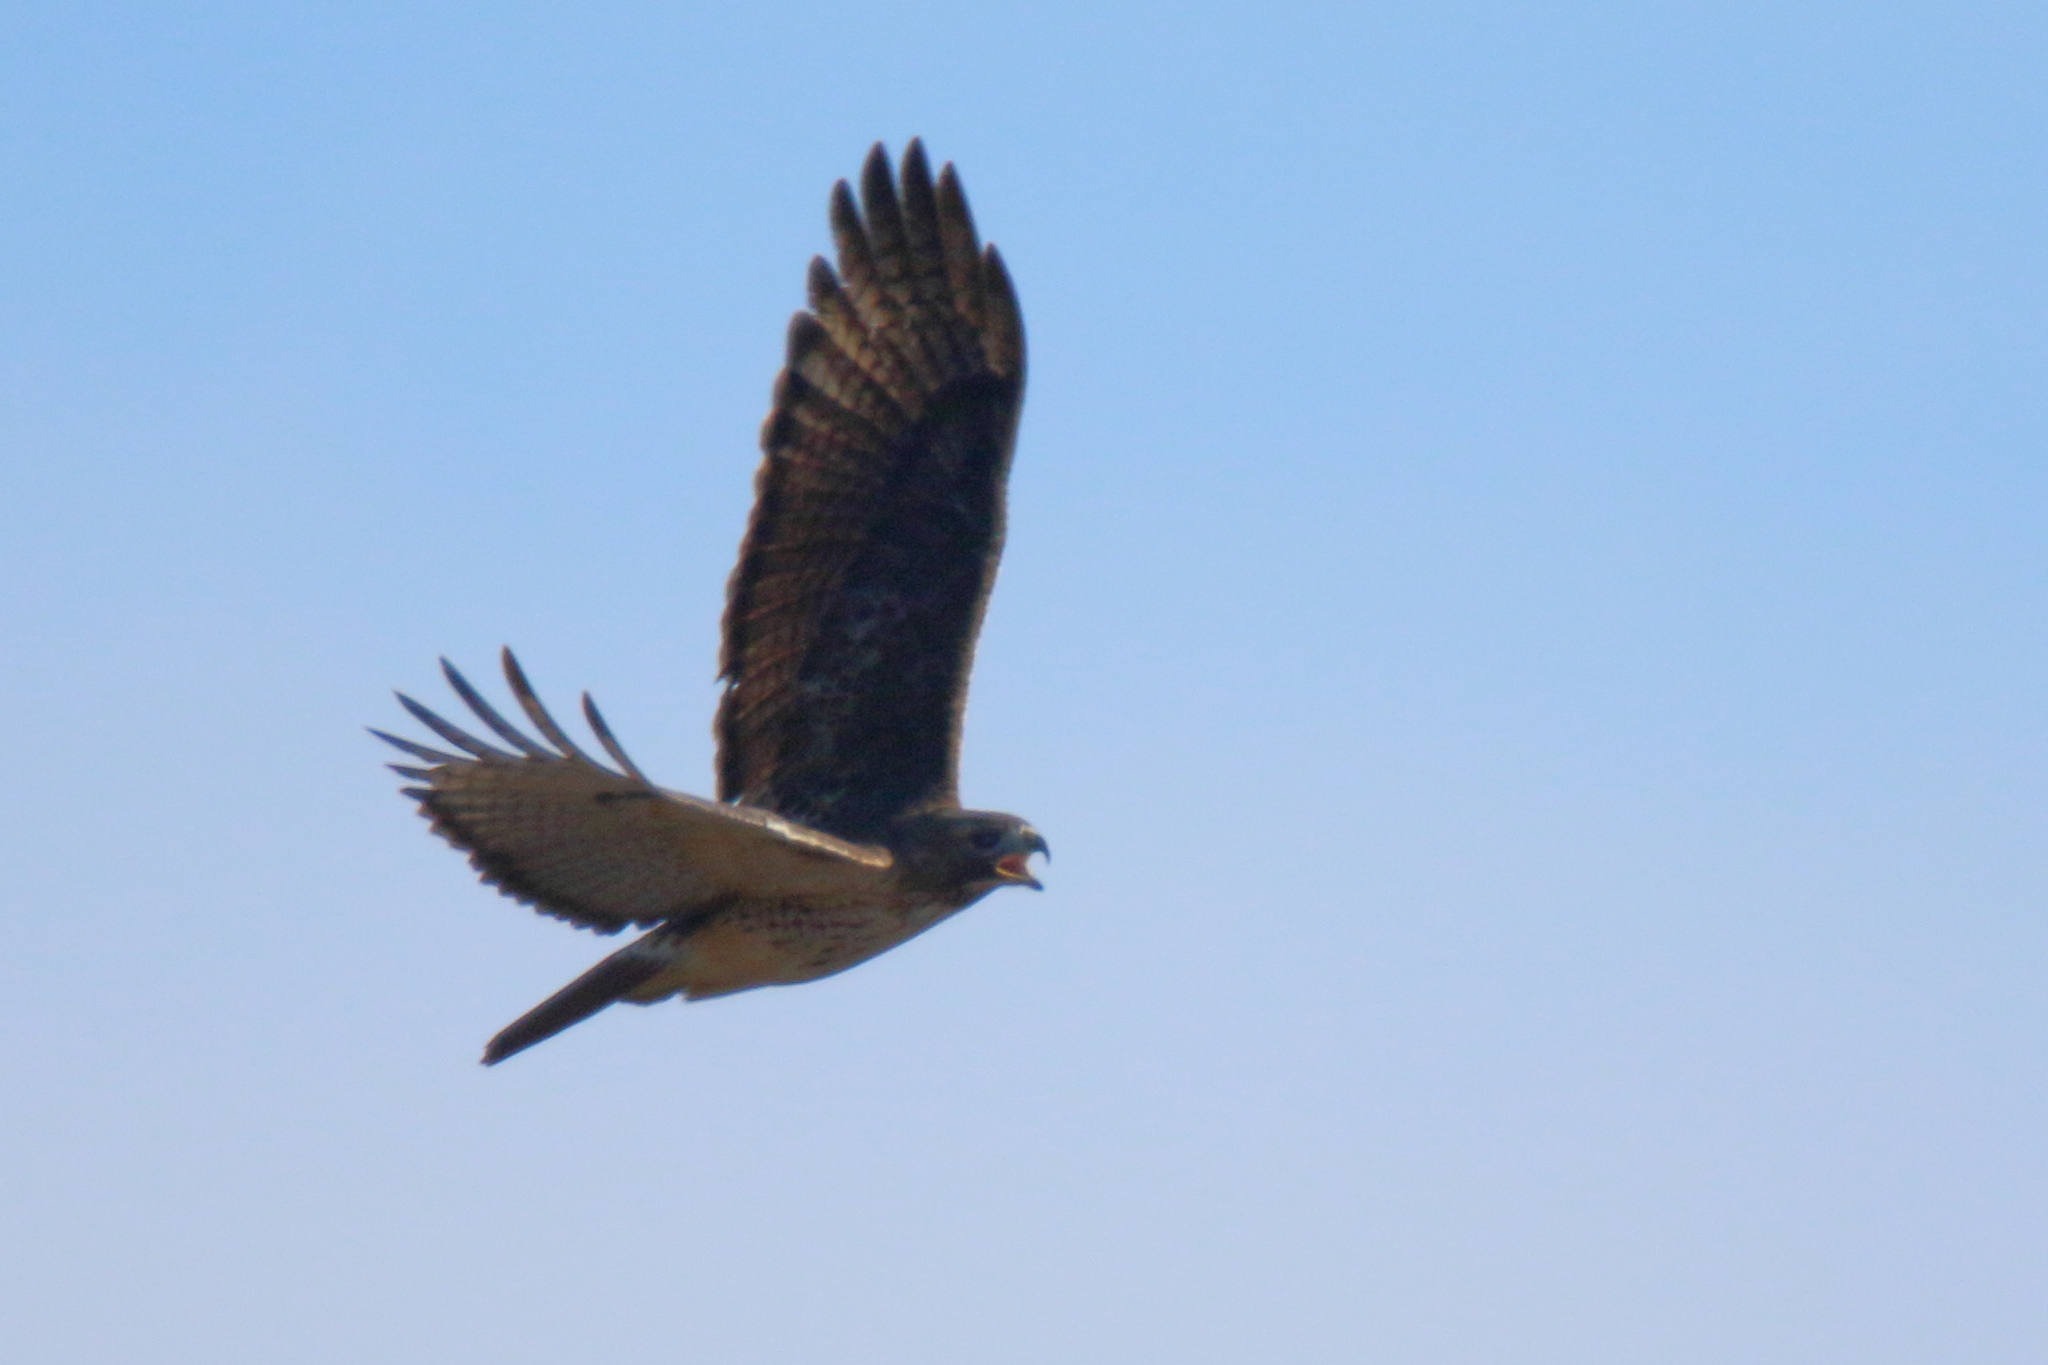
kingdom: Animalia
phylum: Chordata
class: Aves
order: Accipitriformes
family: Accipitridae
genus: Buteo
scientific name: Buteo jamaicensis
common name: Red-tailed hawk
